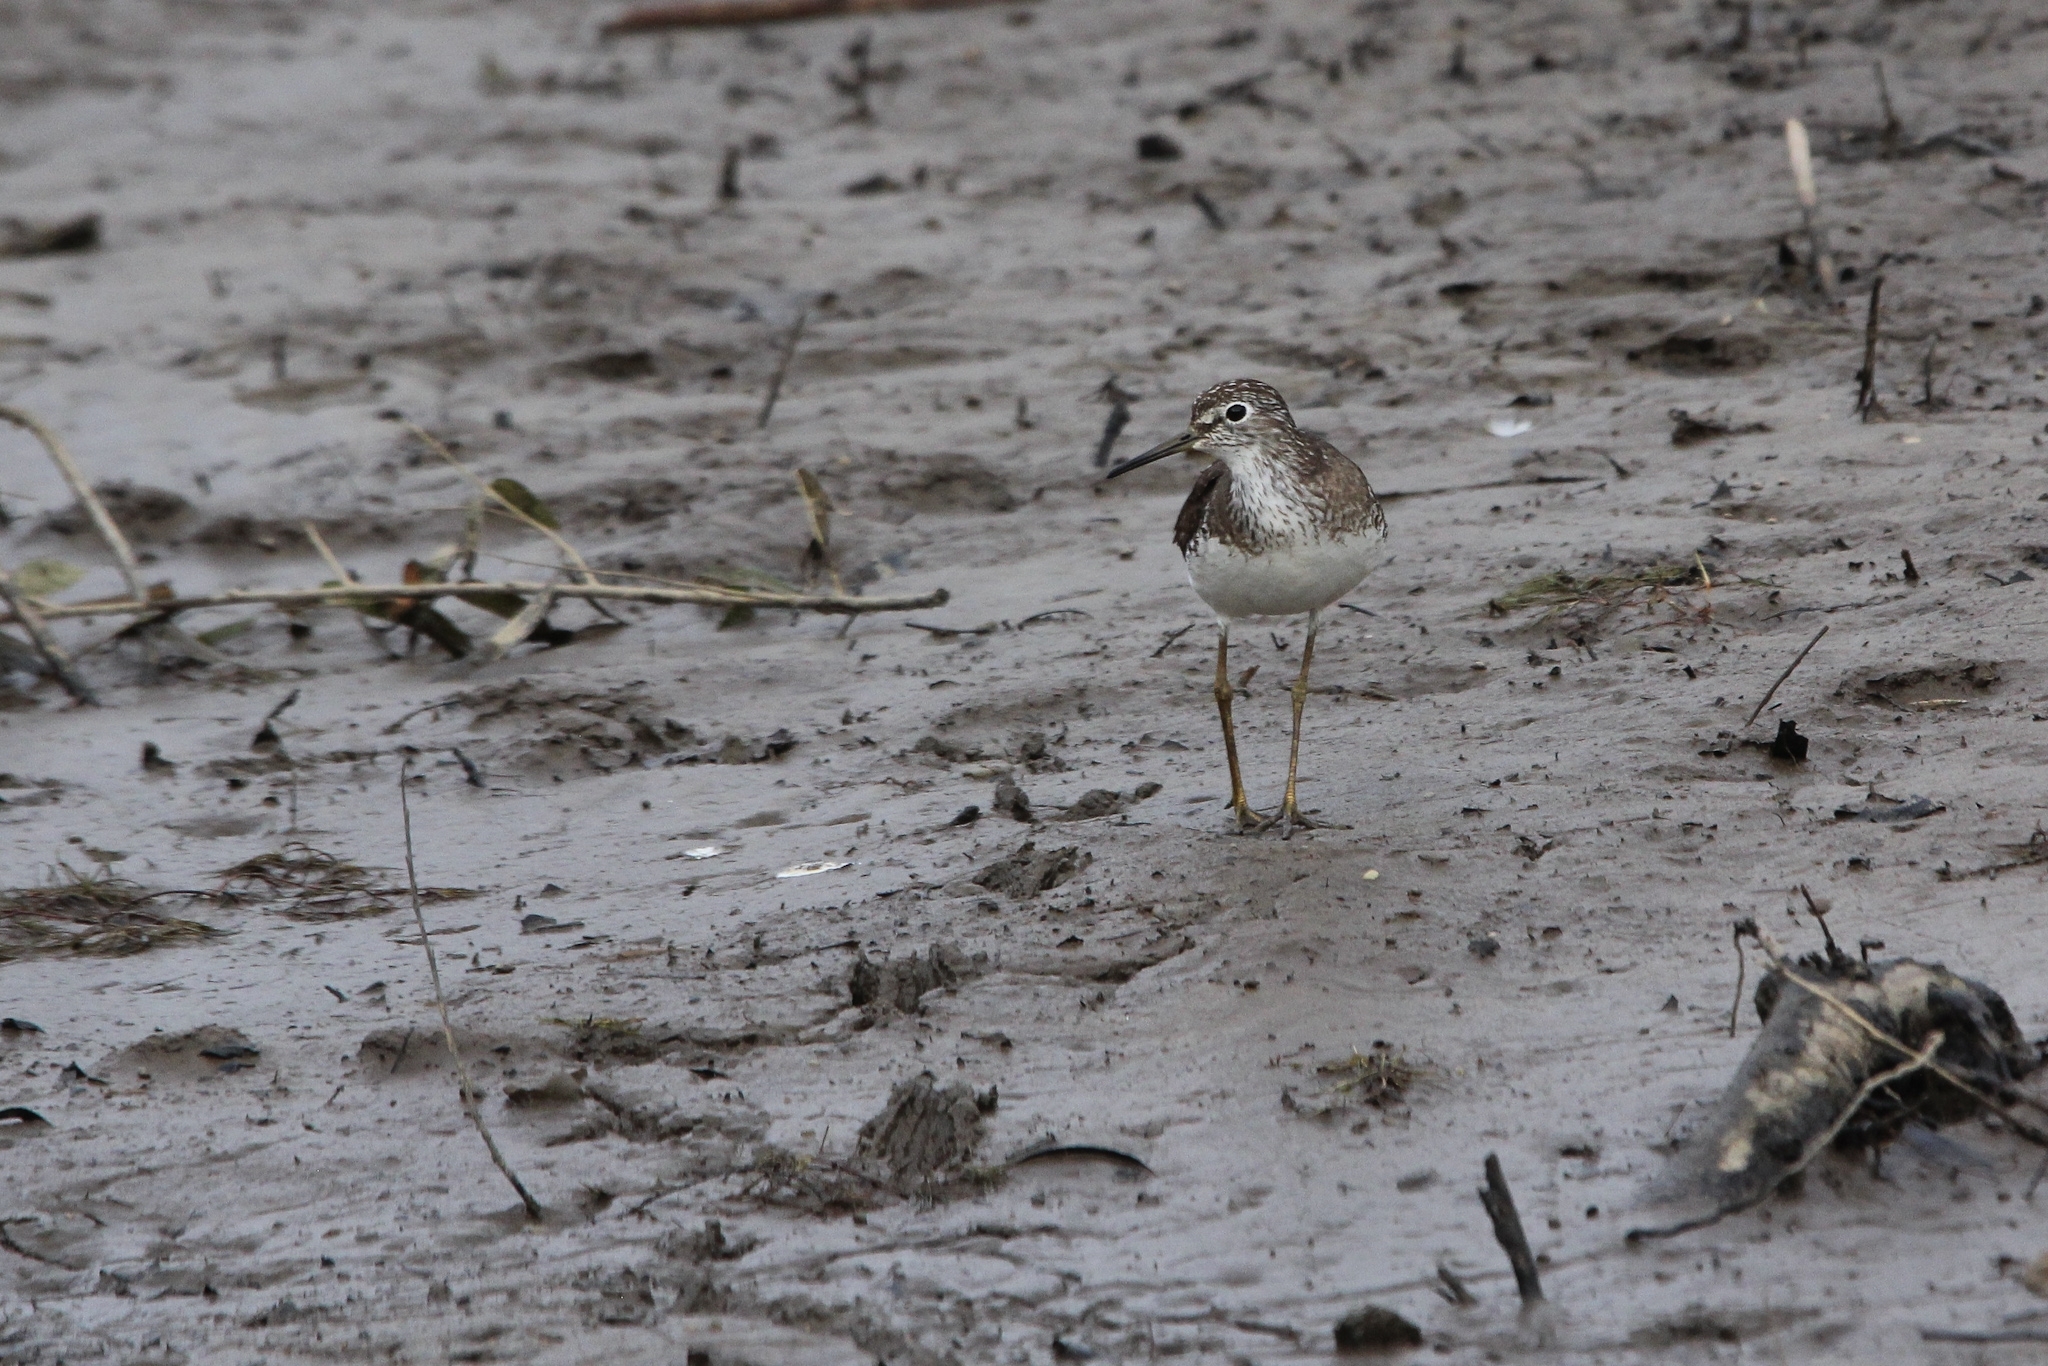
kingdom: Animalia
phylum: Chordata
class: Aves
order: Charadriiformes
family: Scolopacidae
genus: Tringa
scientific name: Tringa solitaria
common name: Solitary sandpiper
